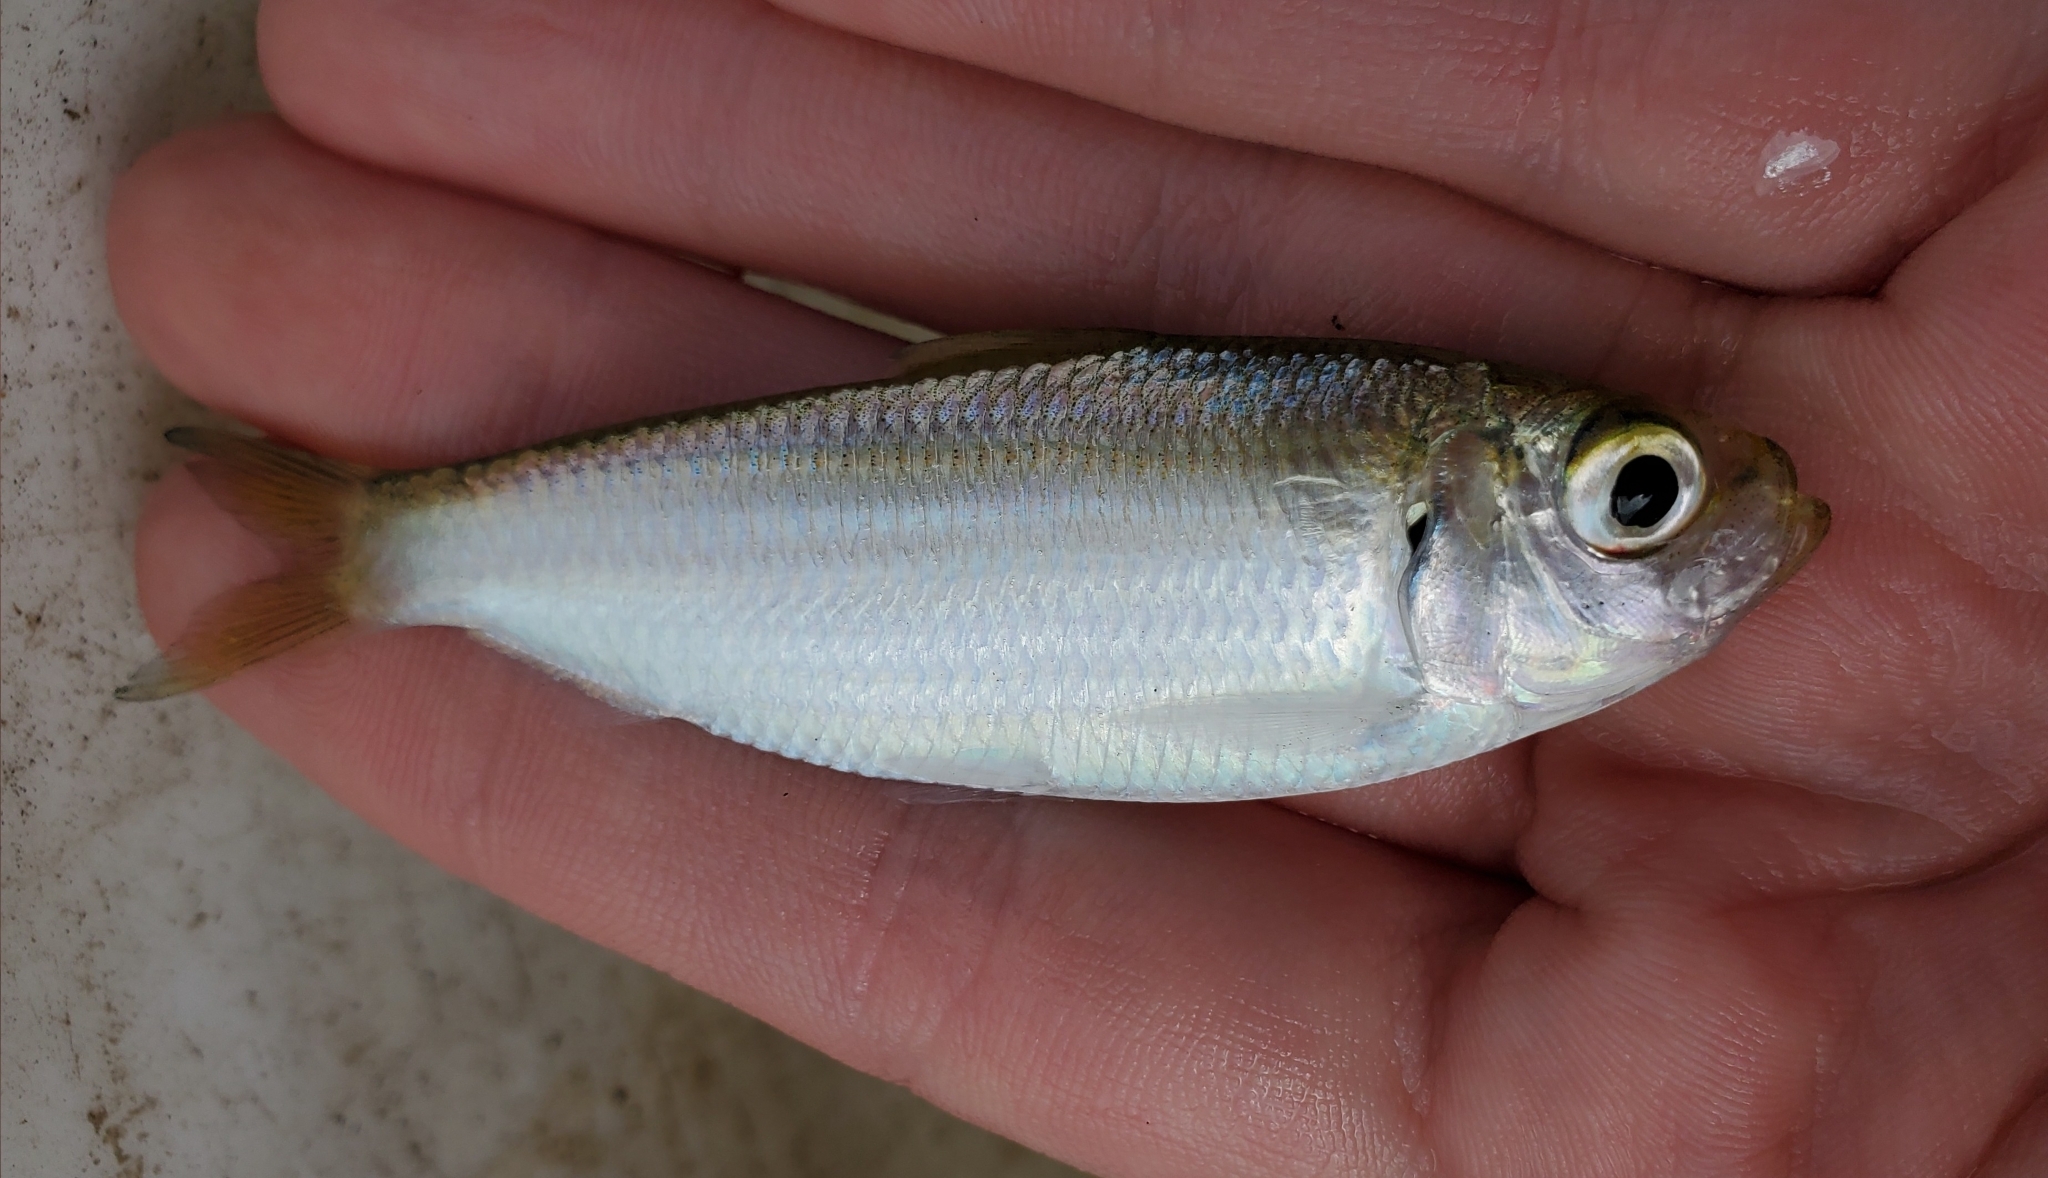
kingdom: Animalia
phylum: Chordata
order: Clupeiformes
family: Clupeidae
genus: Harengula
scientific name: Harengula jaguana
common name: Scaled sardine
